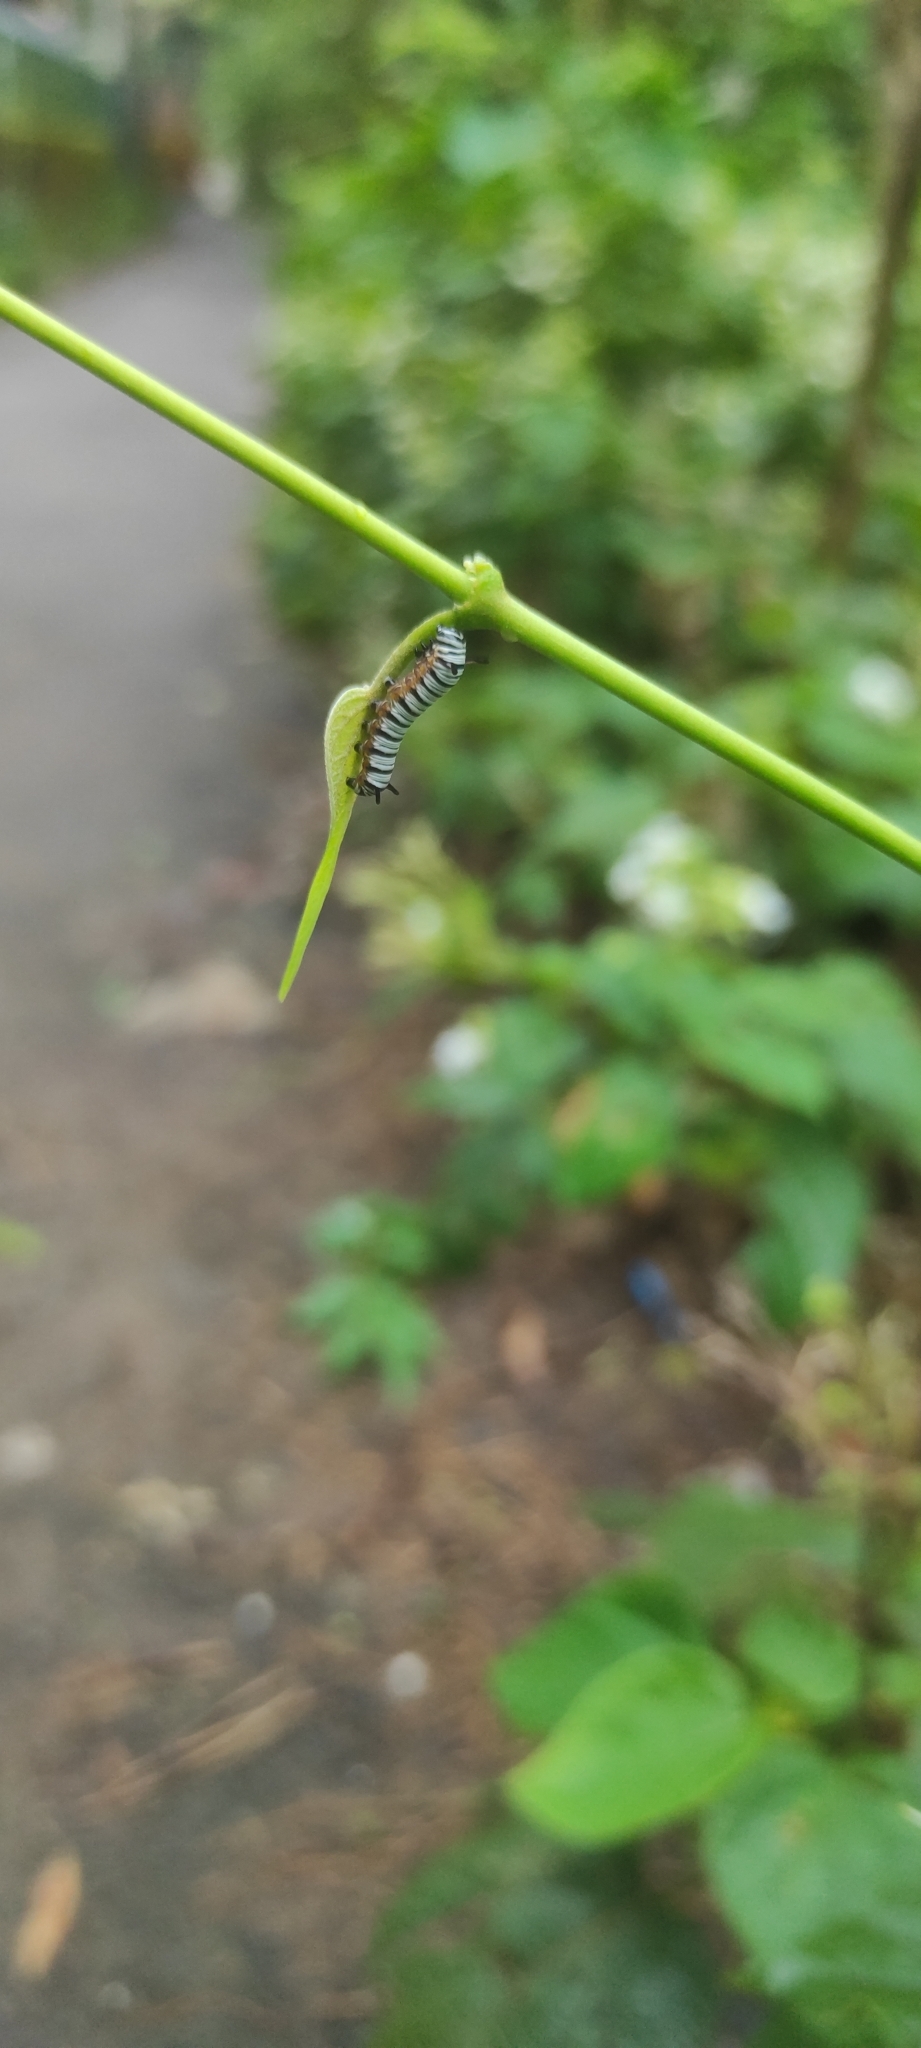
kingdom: Animalia
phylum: Arthropoda
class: Insecta
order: Lepidoptera
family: Nymphalidae
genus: Tirumala
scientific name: Tirumala limniace
